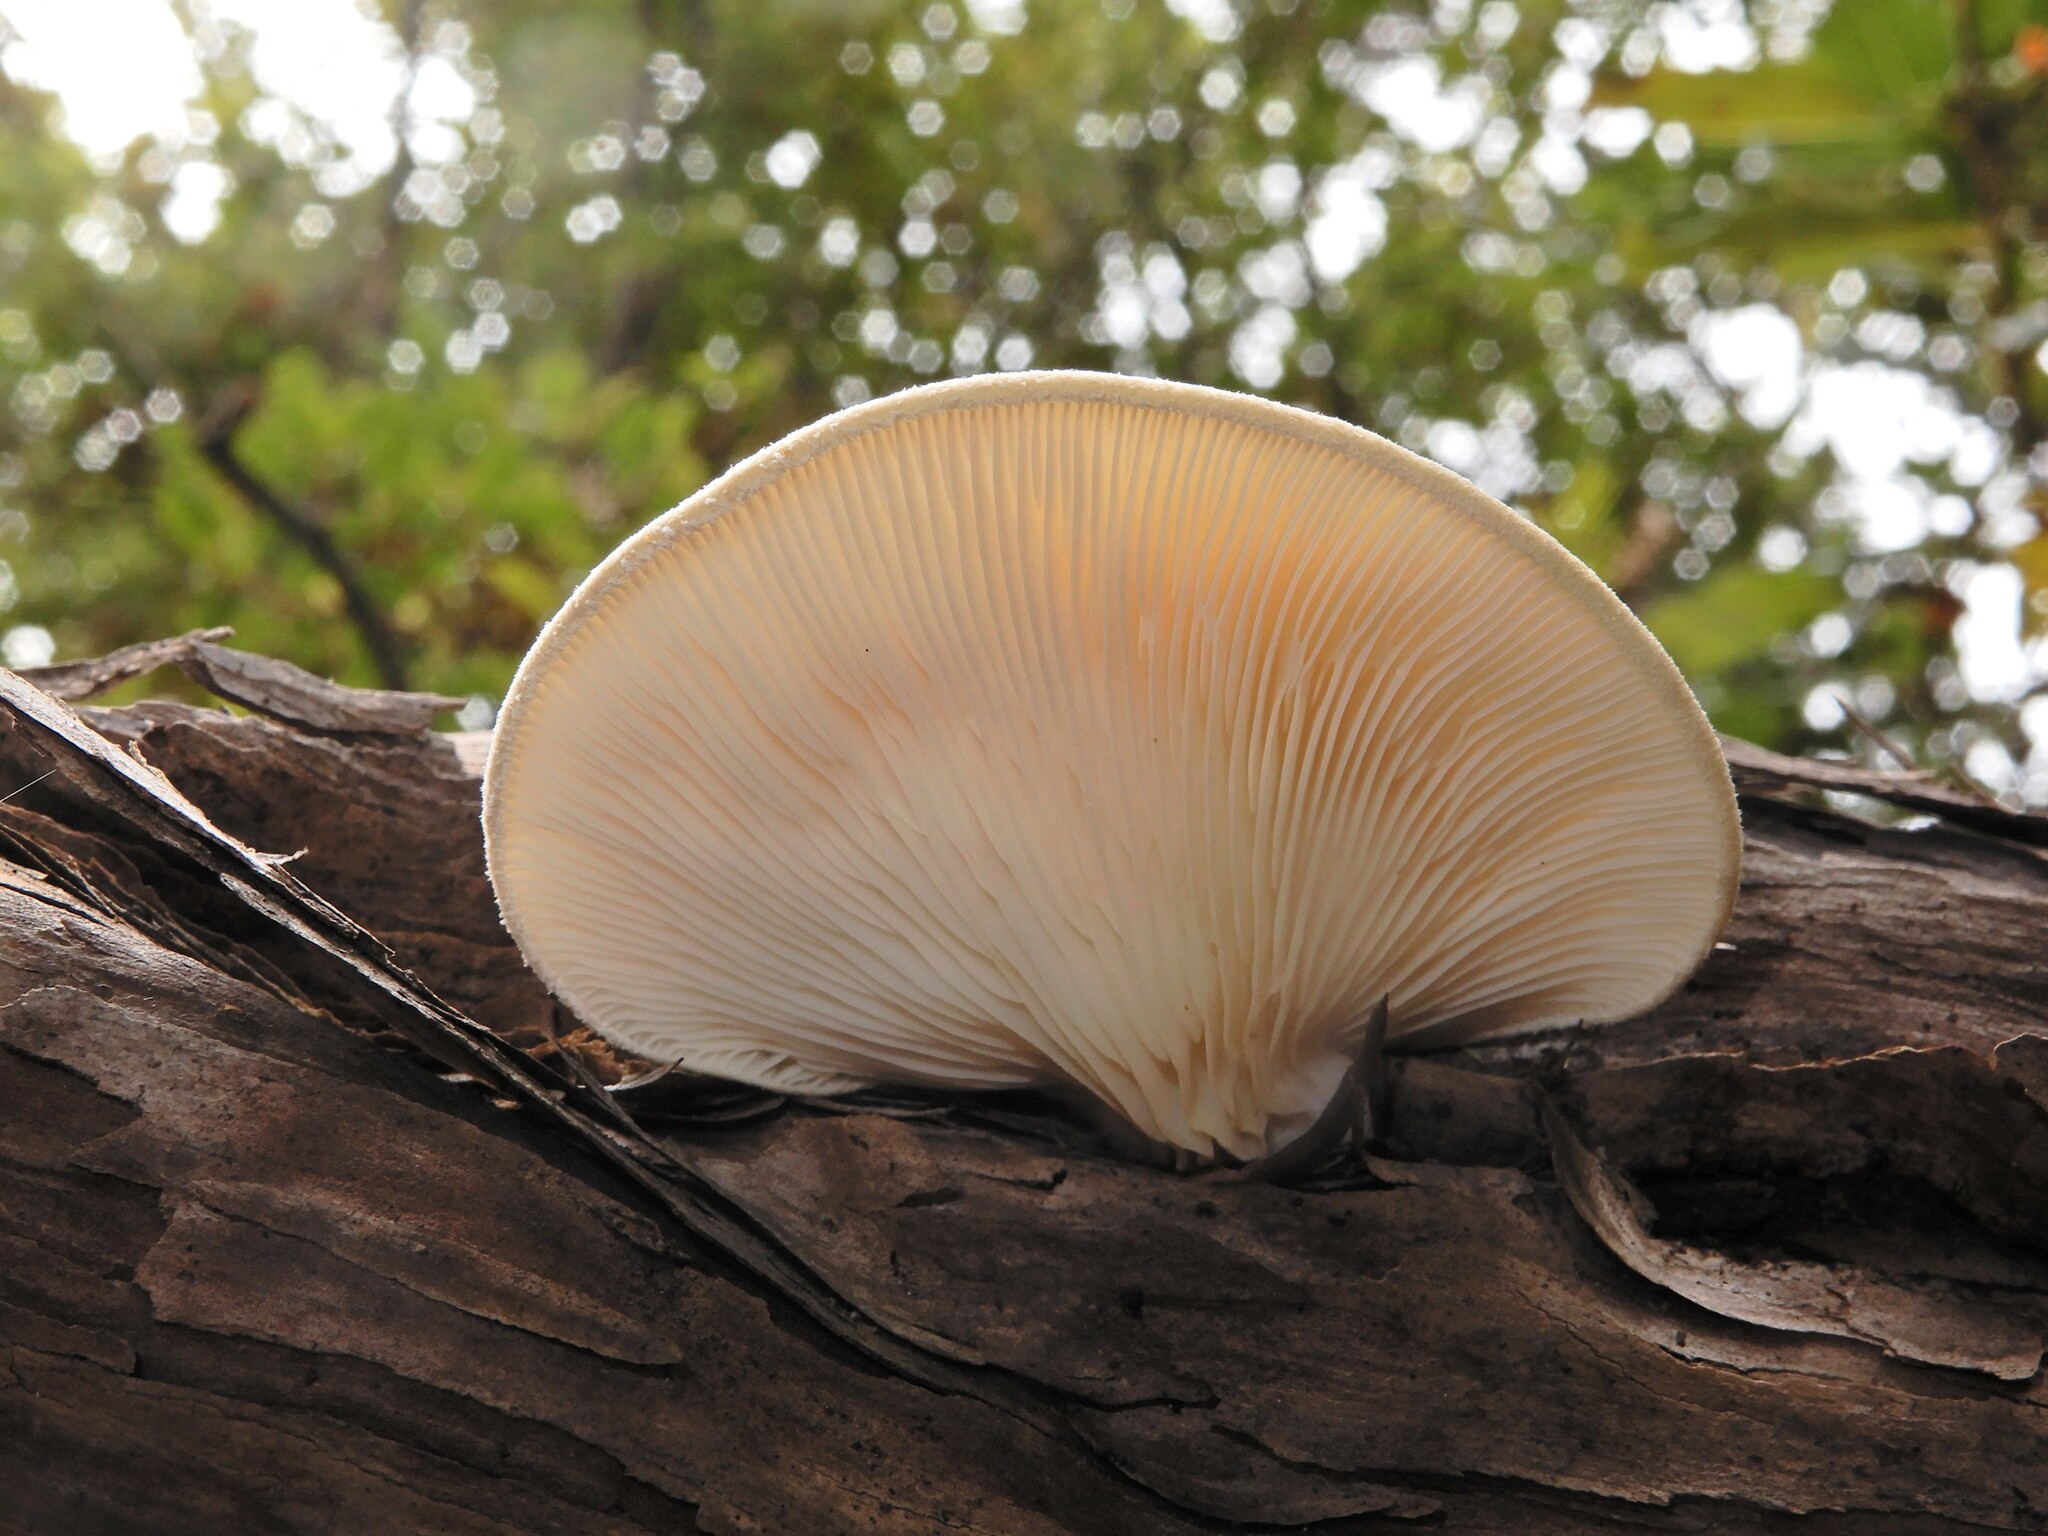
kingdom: Fungi
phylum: Basidiomycota
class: Agaricomycetes
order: Agaricales
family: Pleurotaceae
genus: Pleurotus
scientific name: Pleurotus australis
